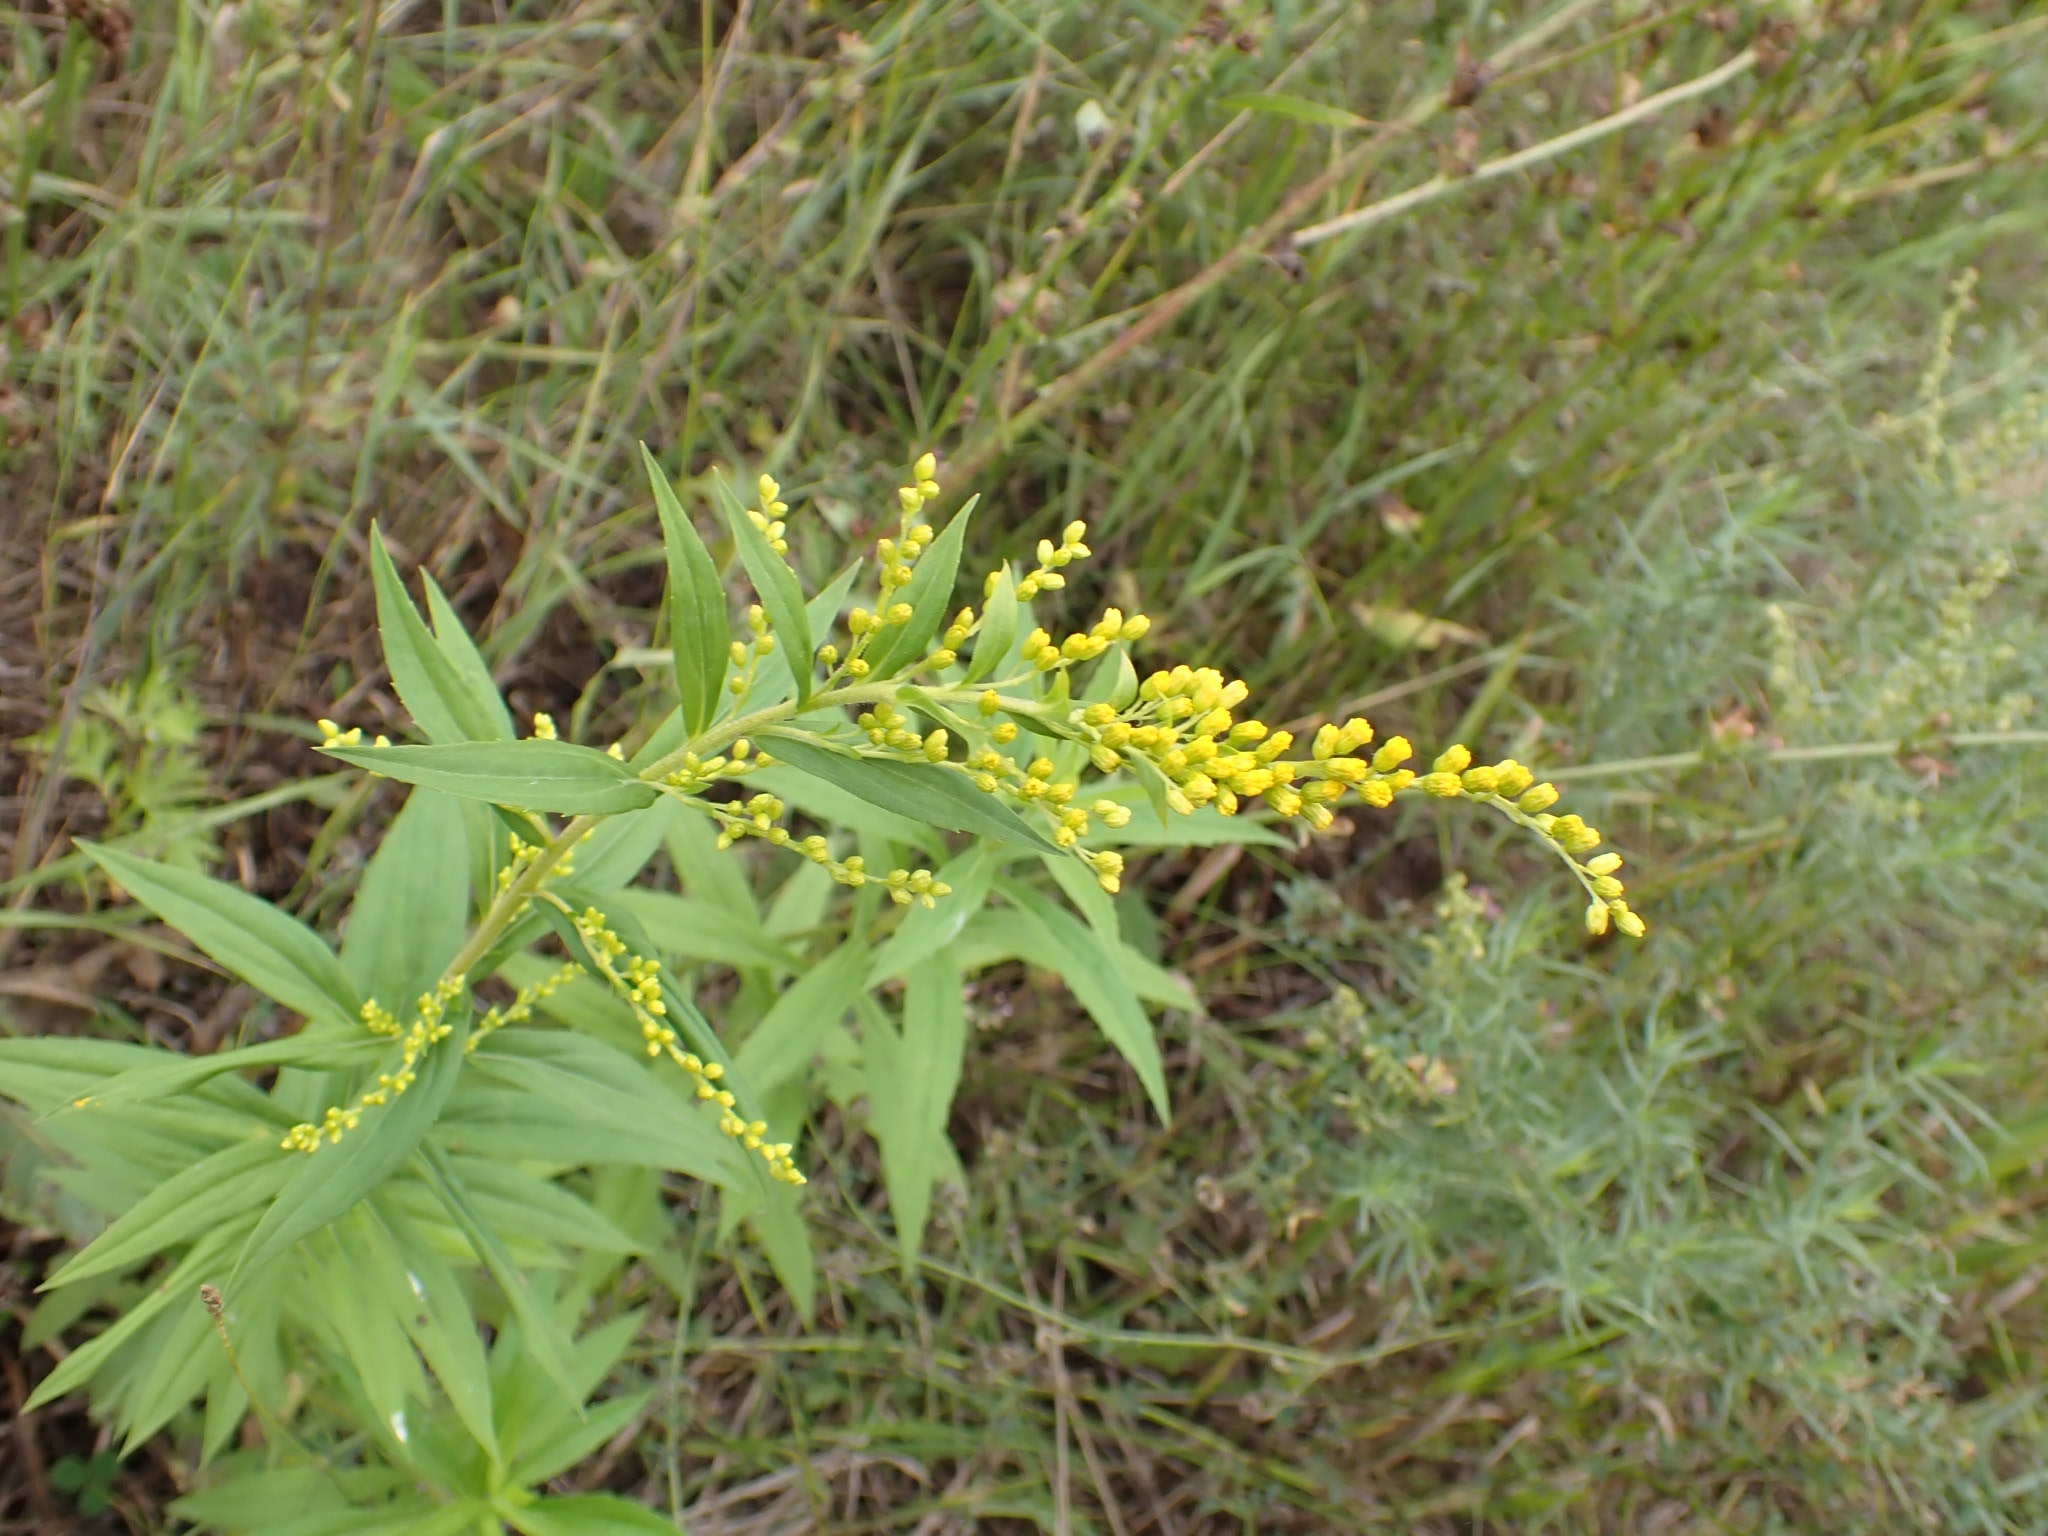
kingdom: Plantae
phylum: Tracheophyta
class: Magnoliopsida
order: Asterales
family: Asteraceae
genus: Solidago
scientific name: Solidago canadensis
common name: Canada goldenrod
